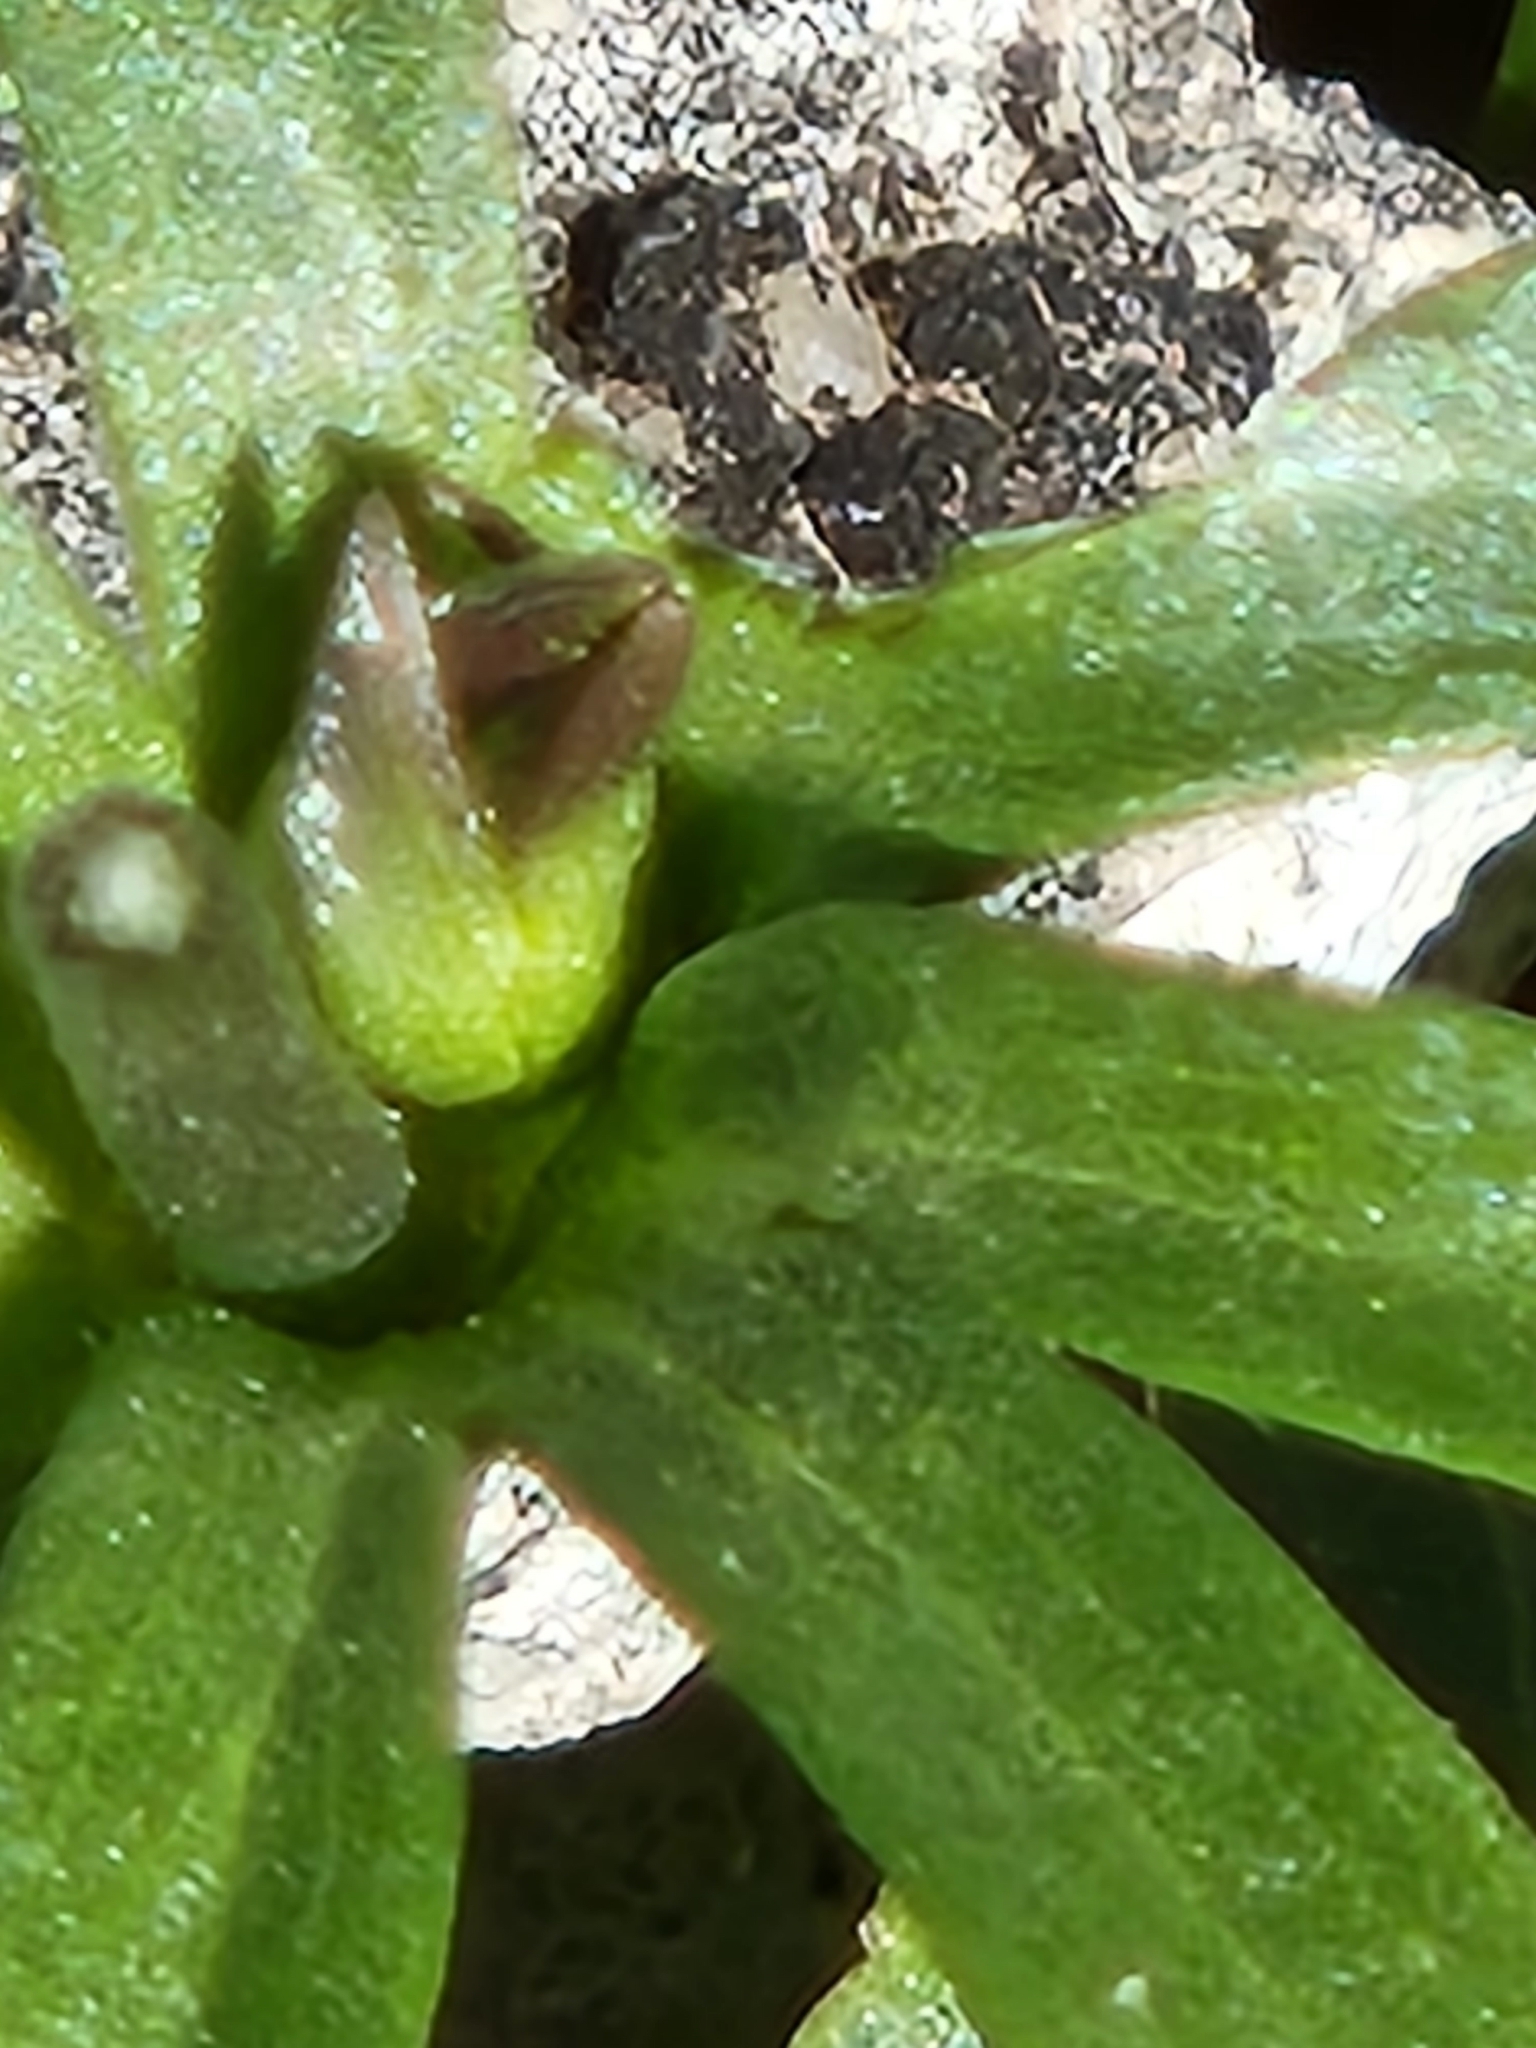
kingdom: Plantae
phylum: Tracheophyta
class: Magnoliopsida
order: Ranunculales
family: Ranunculaceae
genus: Anemone
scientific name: Anemone edwardsiana
